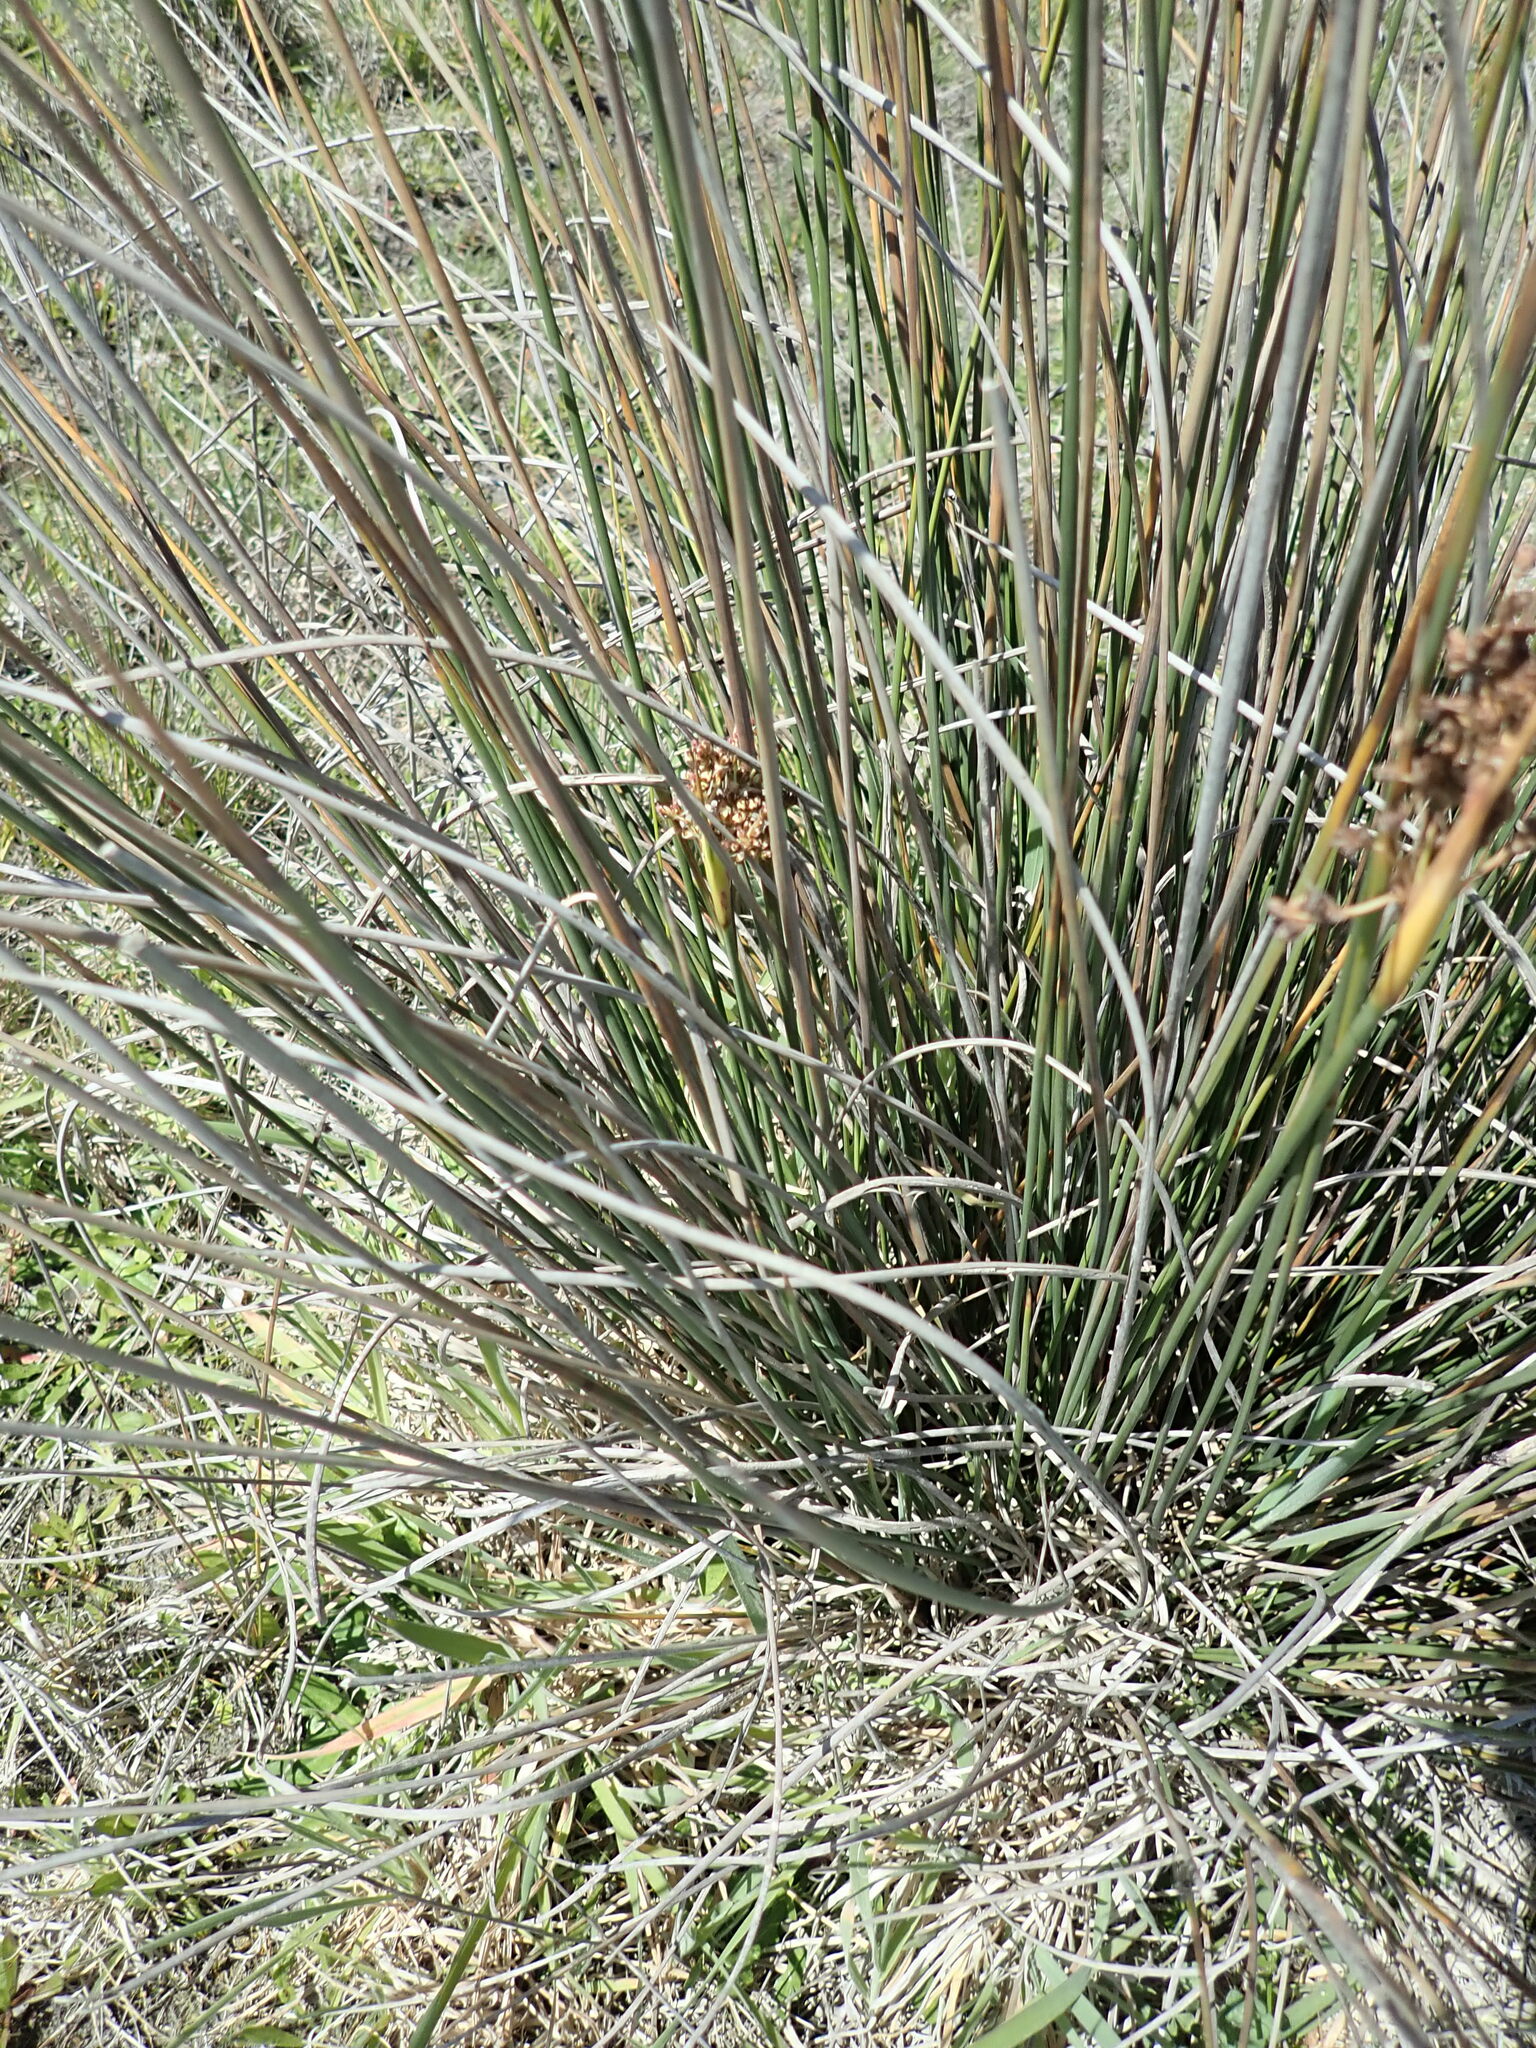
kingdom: Plantae
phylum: Tracheophyta
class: Liliopsida
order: Poales
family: Juncaceae
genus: Juncus
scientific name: Juncus acutus
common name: Sharp rush
